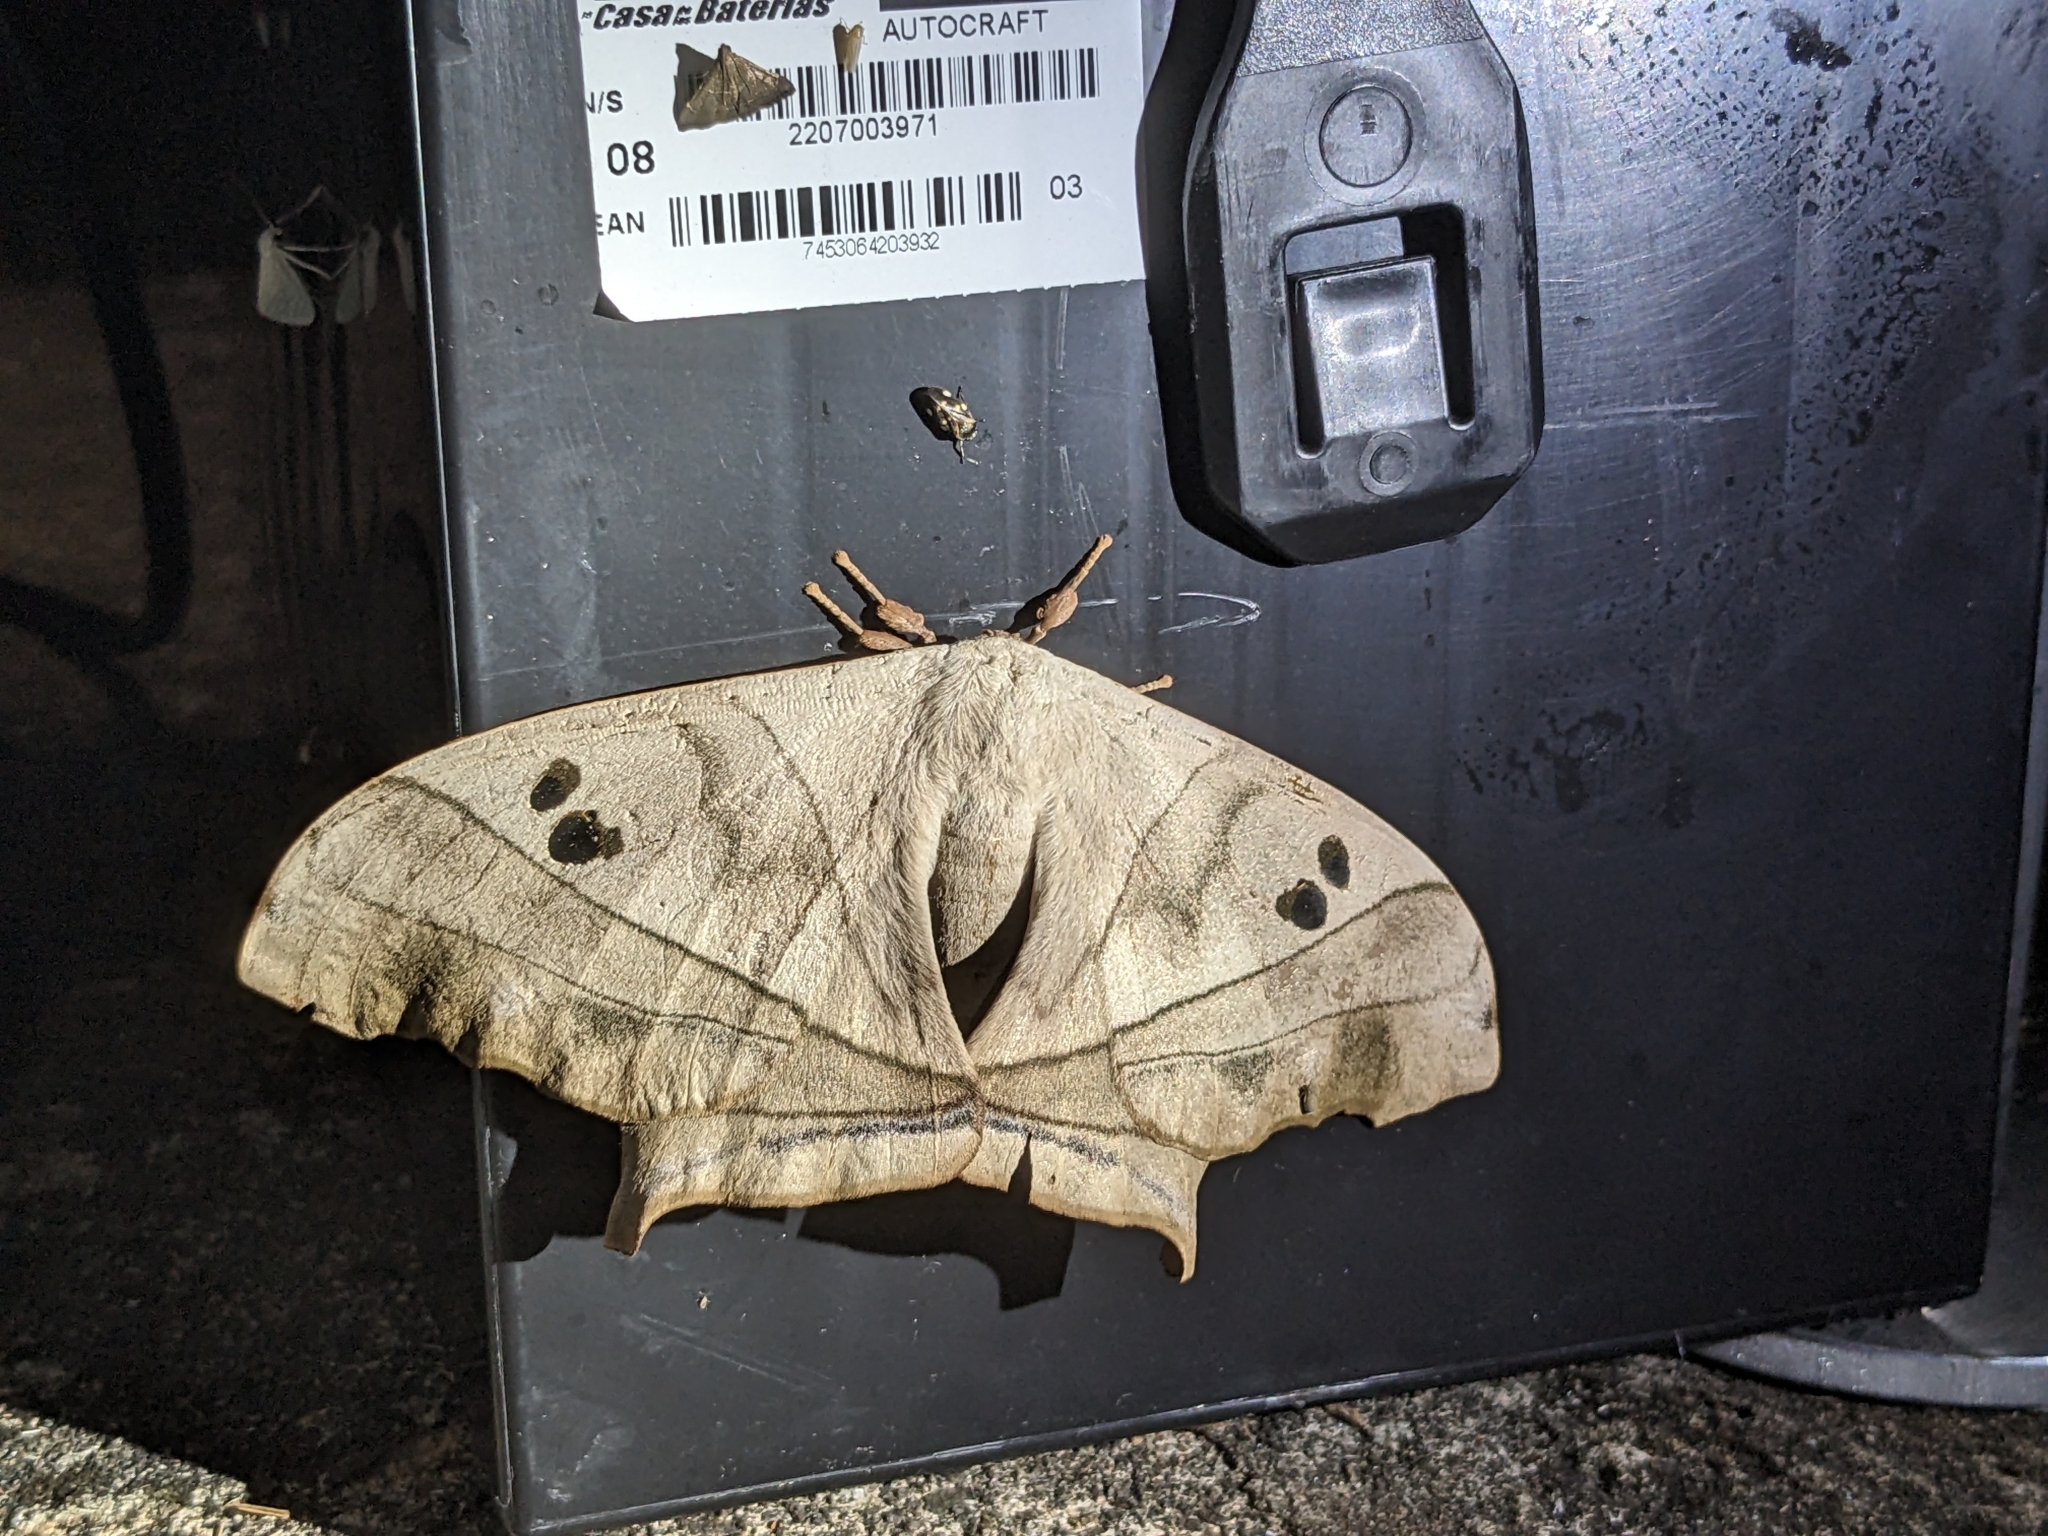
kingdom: Animalia
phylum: Arthropoda
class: Insecta
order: Lepidoptera
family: Saturniidae
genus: Dysdaemonia
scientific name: Dysdaemonia boreas
